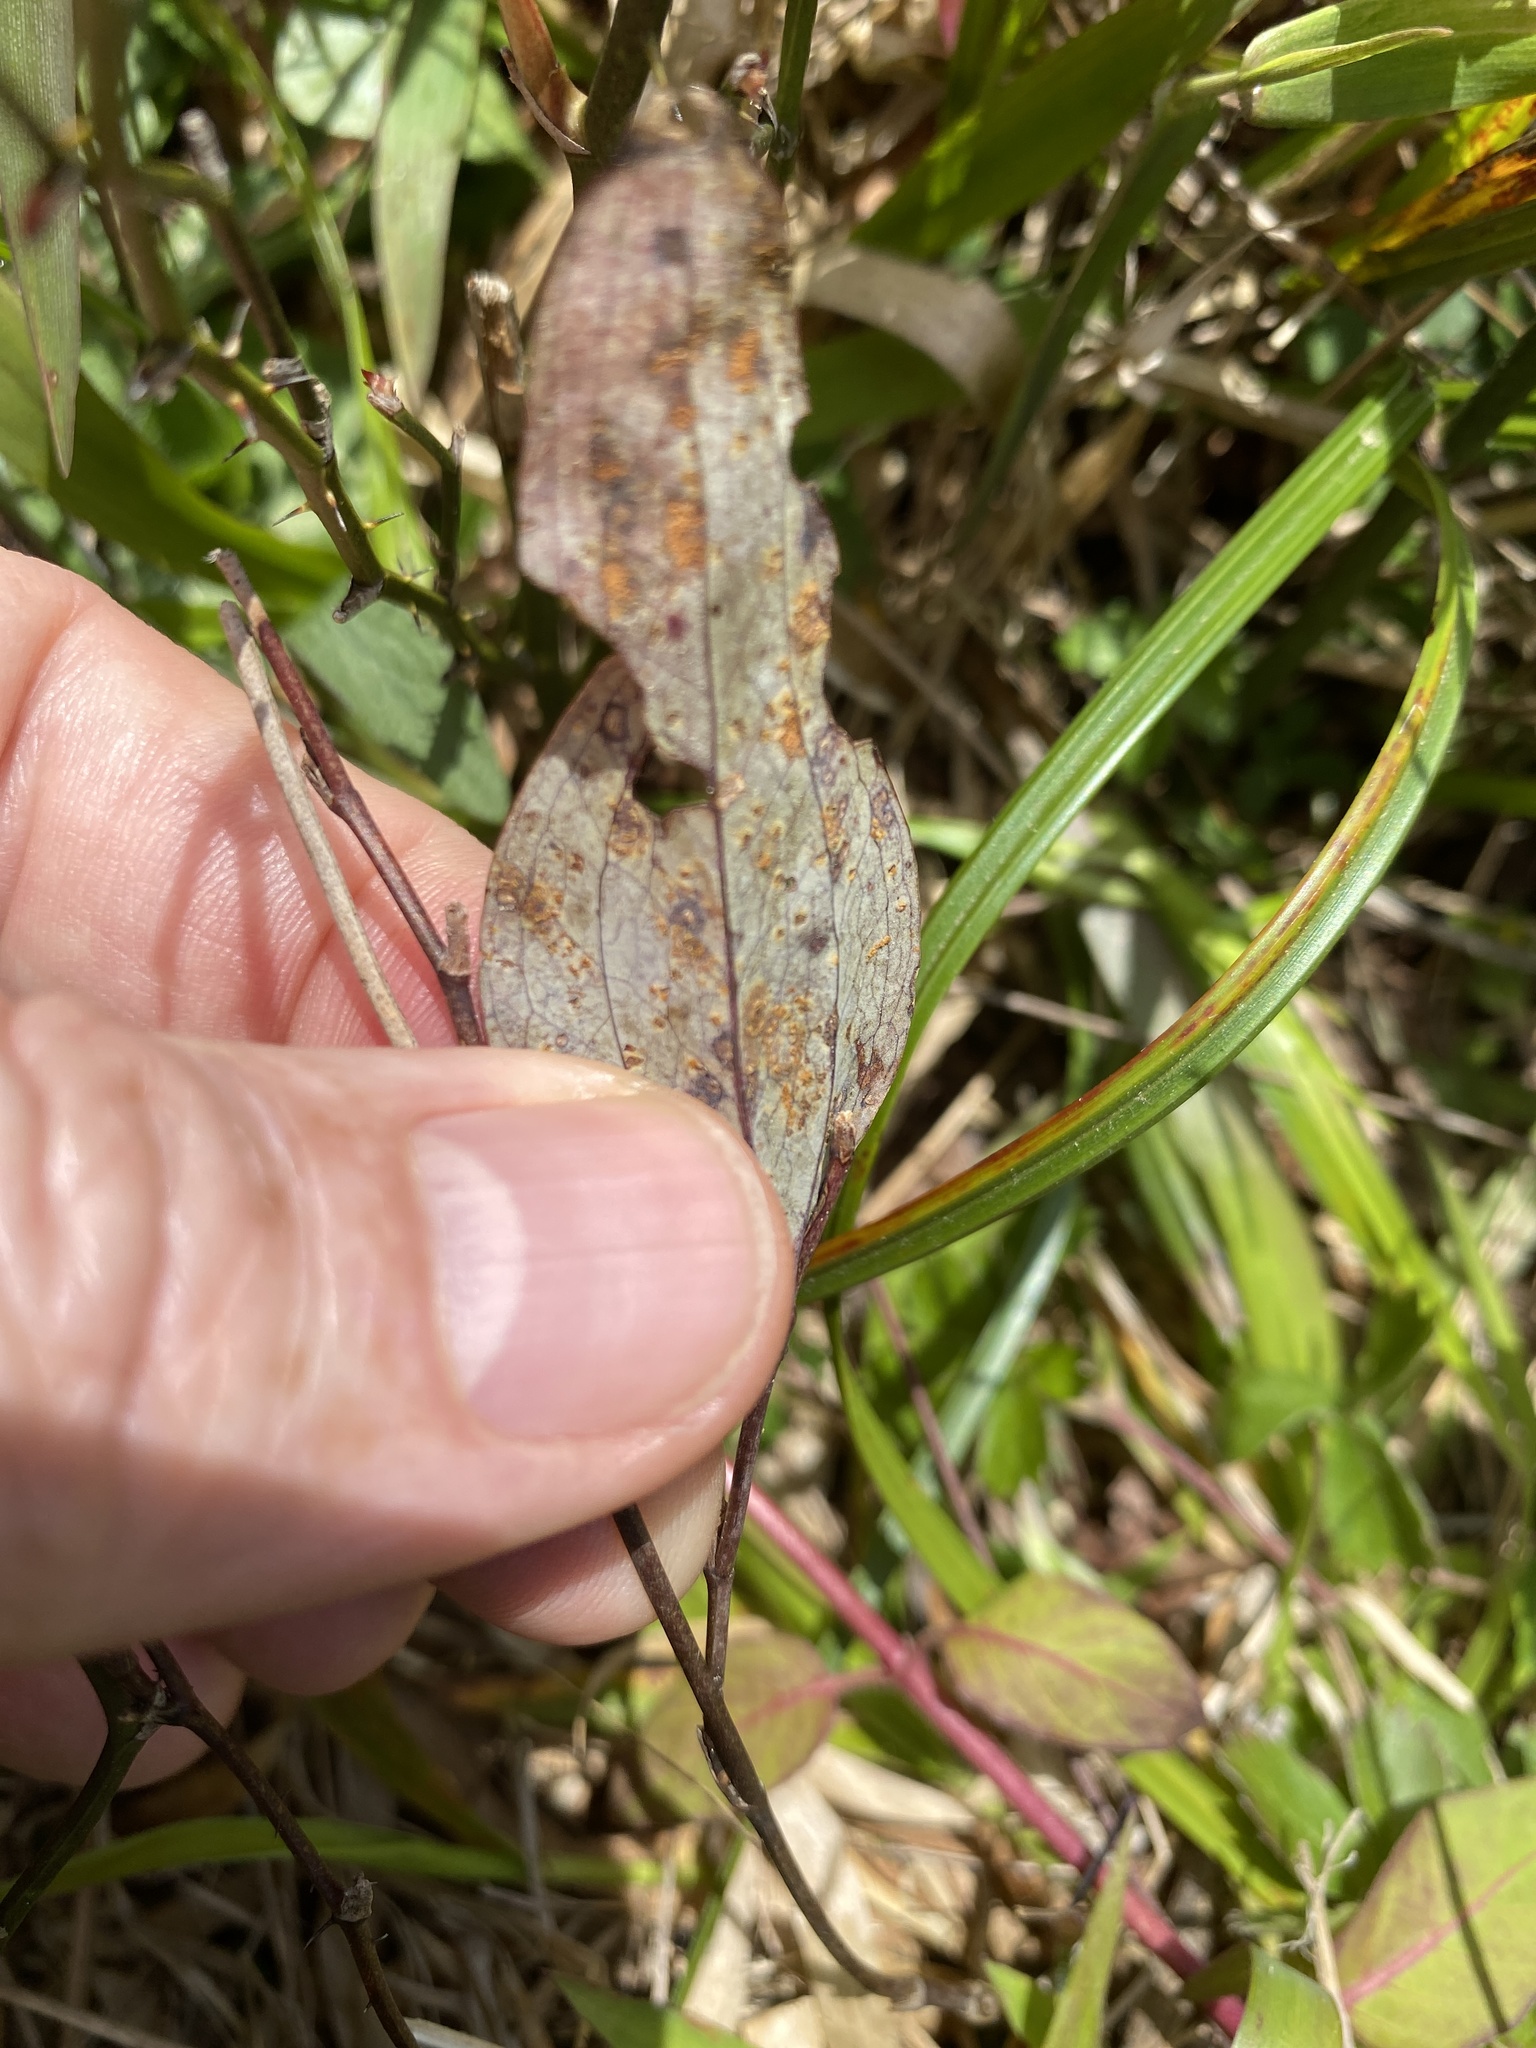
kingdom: Plantae
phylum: Tracheophyta
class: Liliopsida
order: Liliales
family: Smilacaceae
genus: Smilax
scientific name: Smilax glauca
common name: Cat greenbrier
